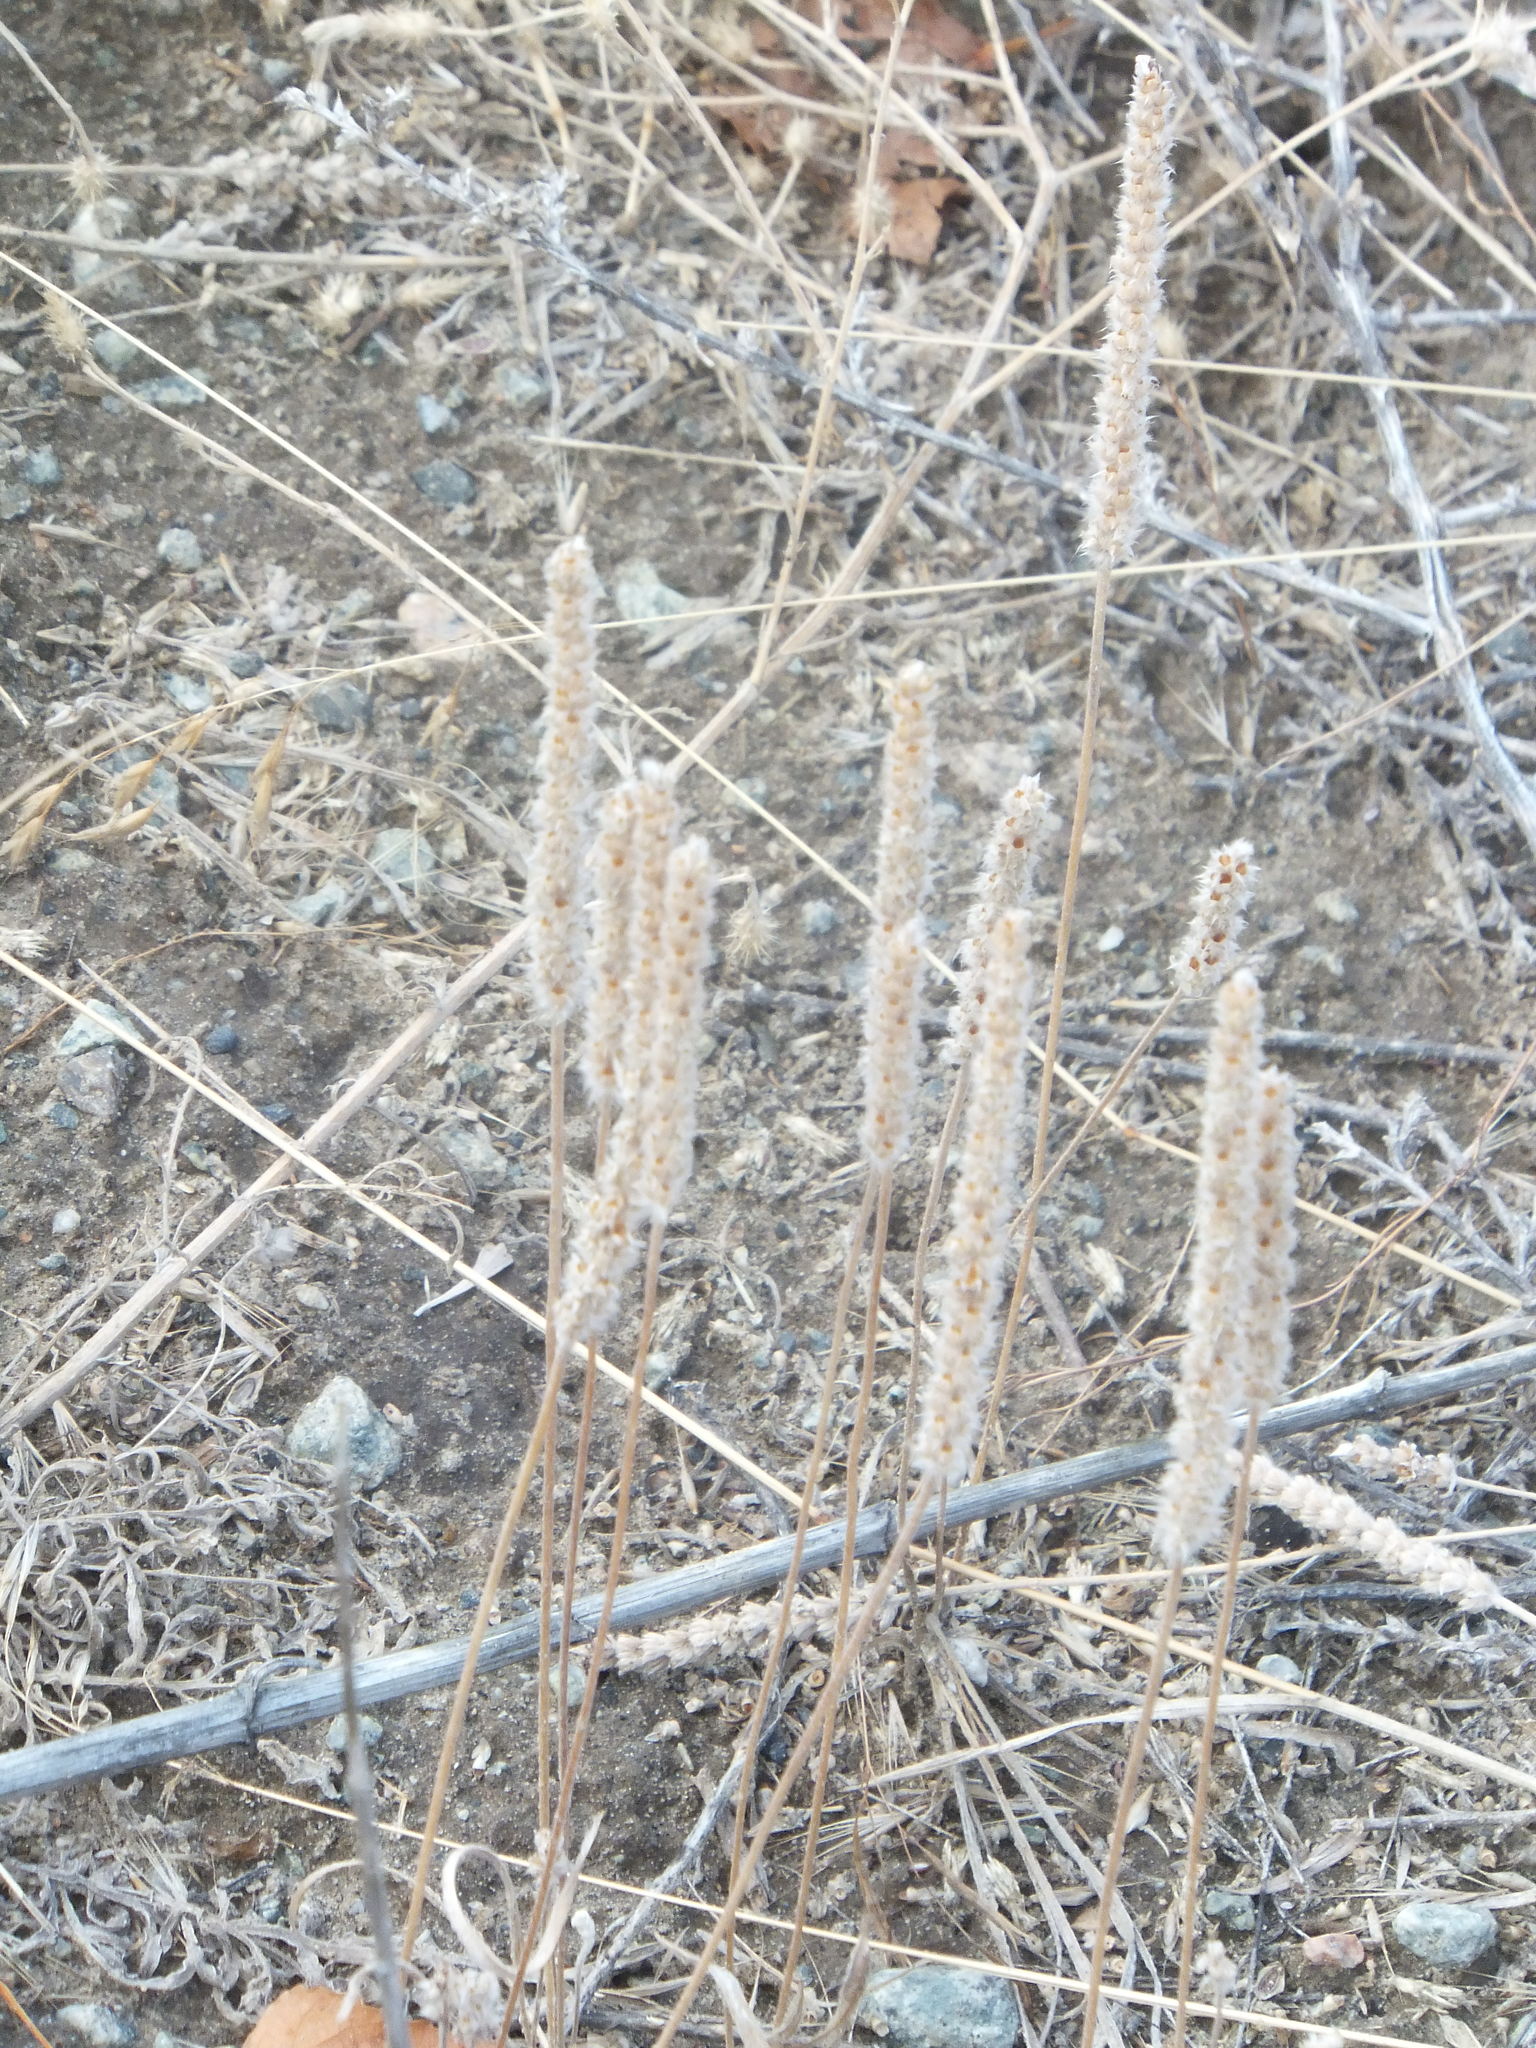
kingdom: Plantae
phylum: Tracheophyta
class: Magnoliopsida
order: Lamiales
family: Plantaginaceae
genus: Plantago
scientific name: Plantago patagonica
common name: Patagonia indian-wheat
